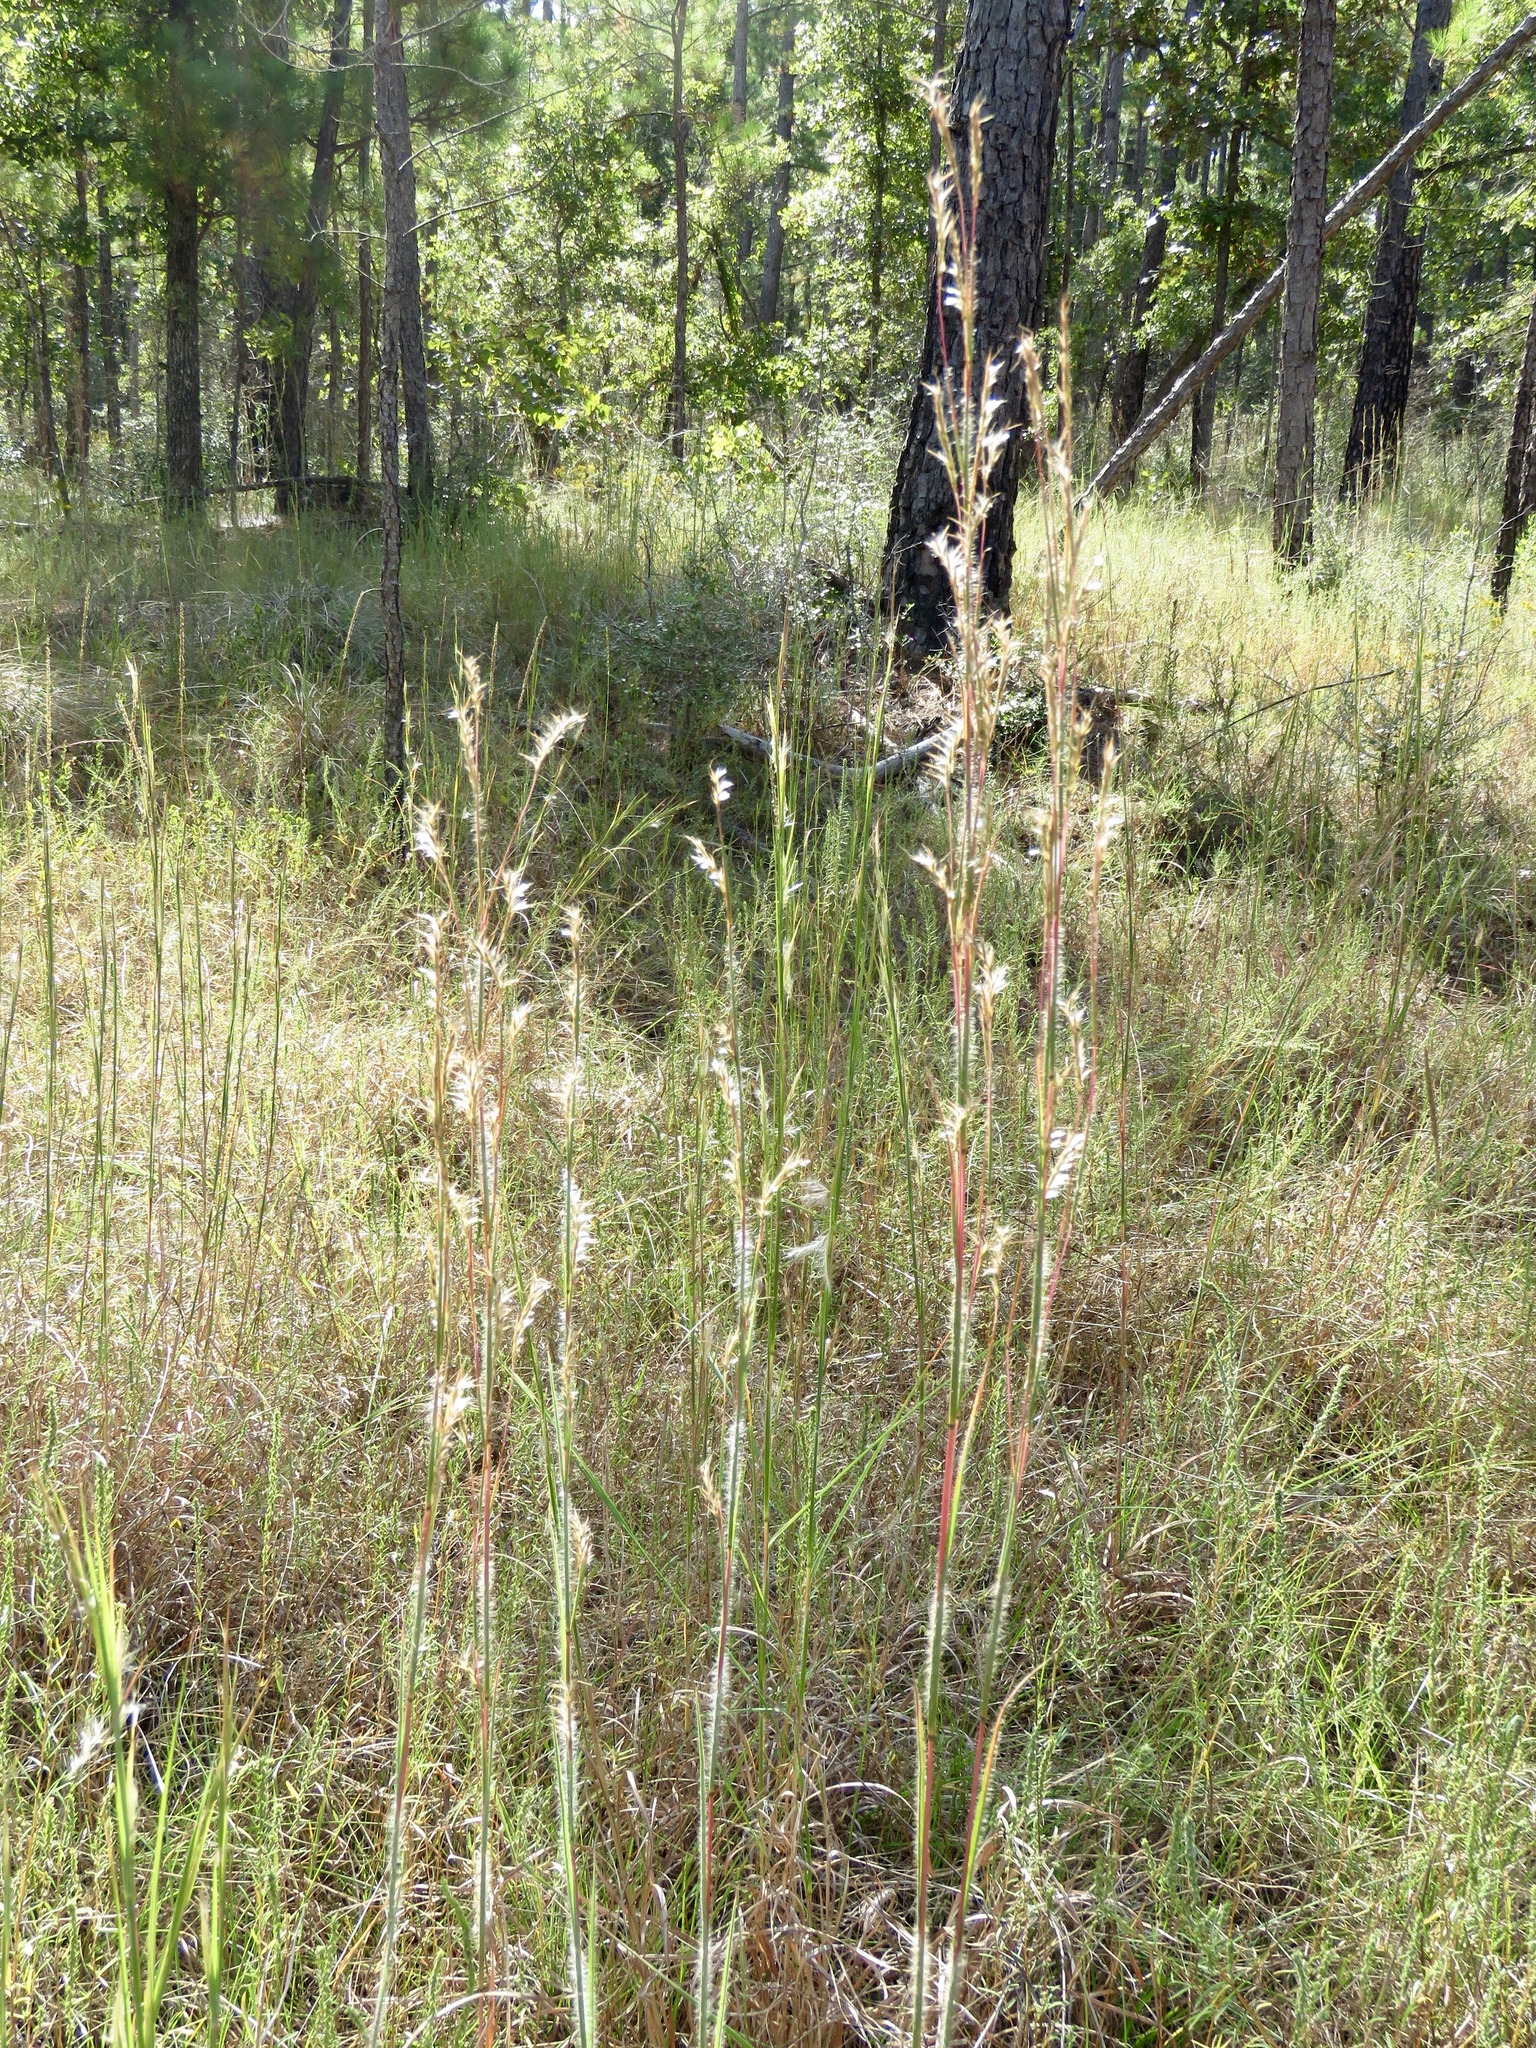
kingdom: Plantae
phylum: Tracheophyta
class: Liliopsida
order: Poales
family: Poaceae
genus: Schizachyrium
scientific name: Schizachyrium scoparium
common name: Little bluestem
